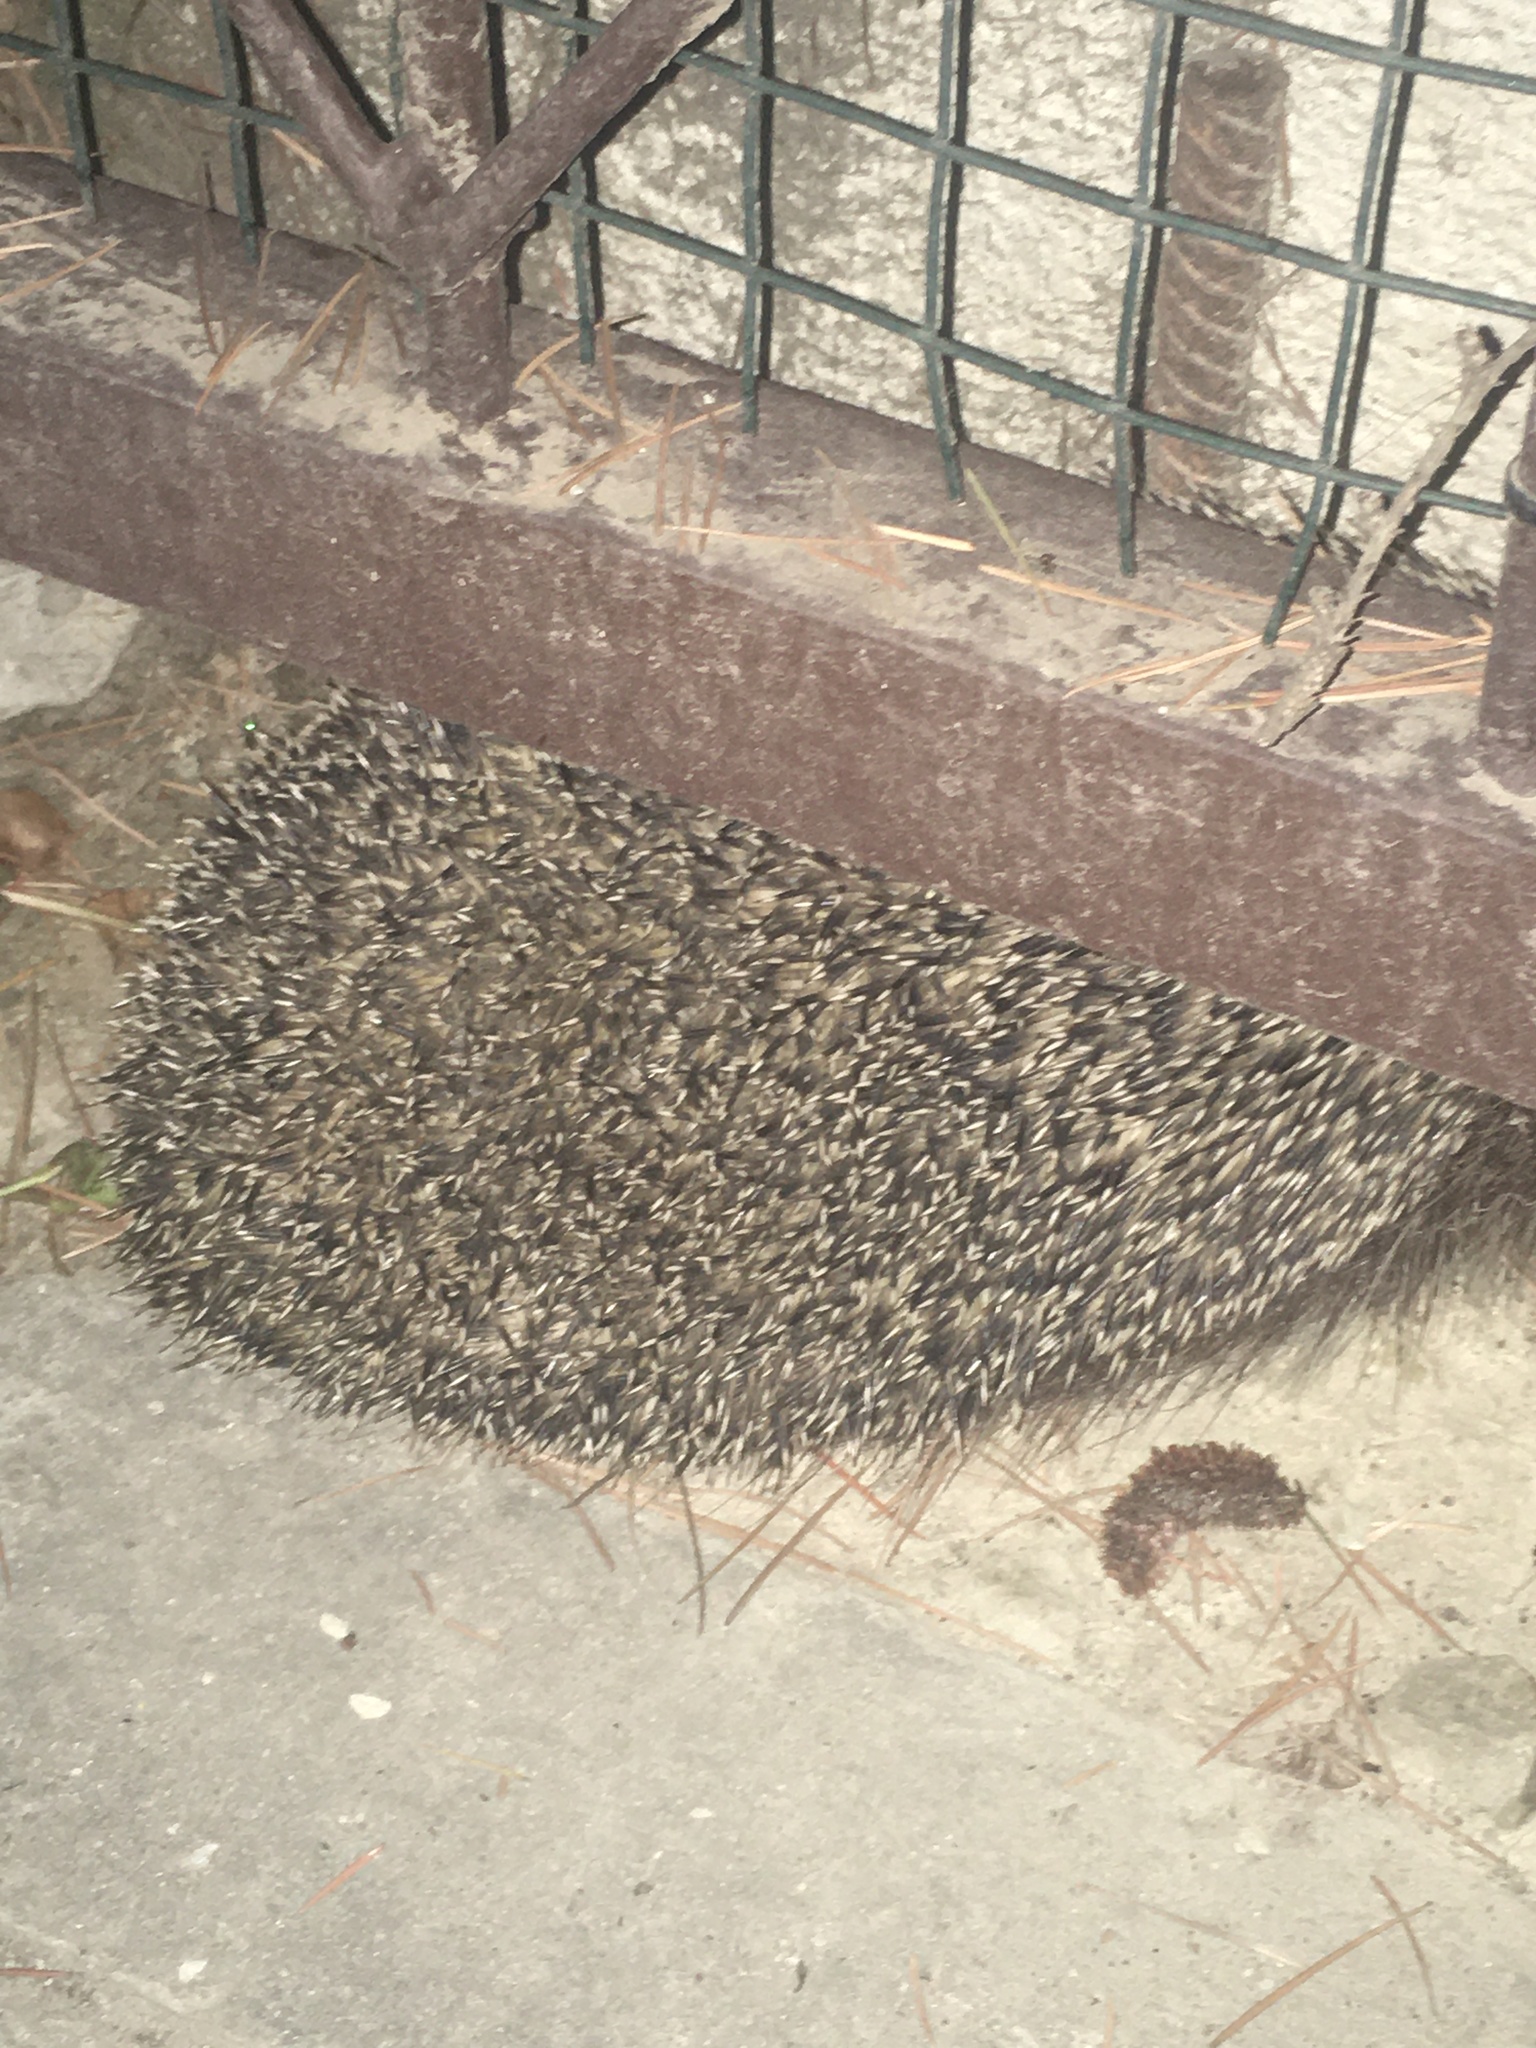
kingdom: Animalia
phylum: Chordata
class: Mammalia
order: Erinaceomorpha
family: Erinaceidae
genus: Erinaceus
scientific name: Erinaceus roumanicus
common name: Northern white-breasted hedgehog
